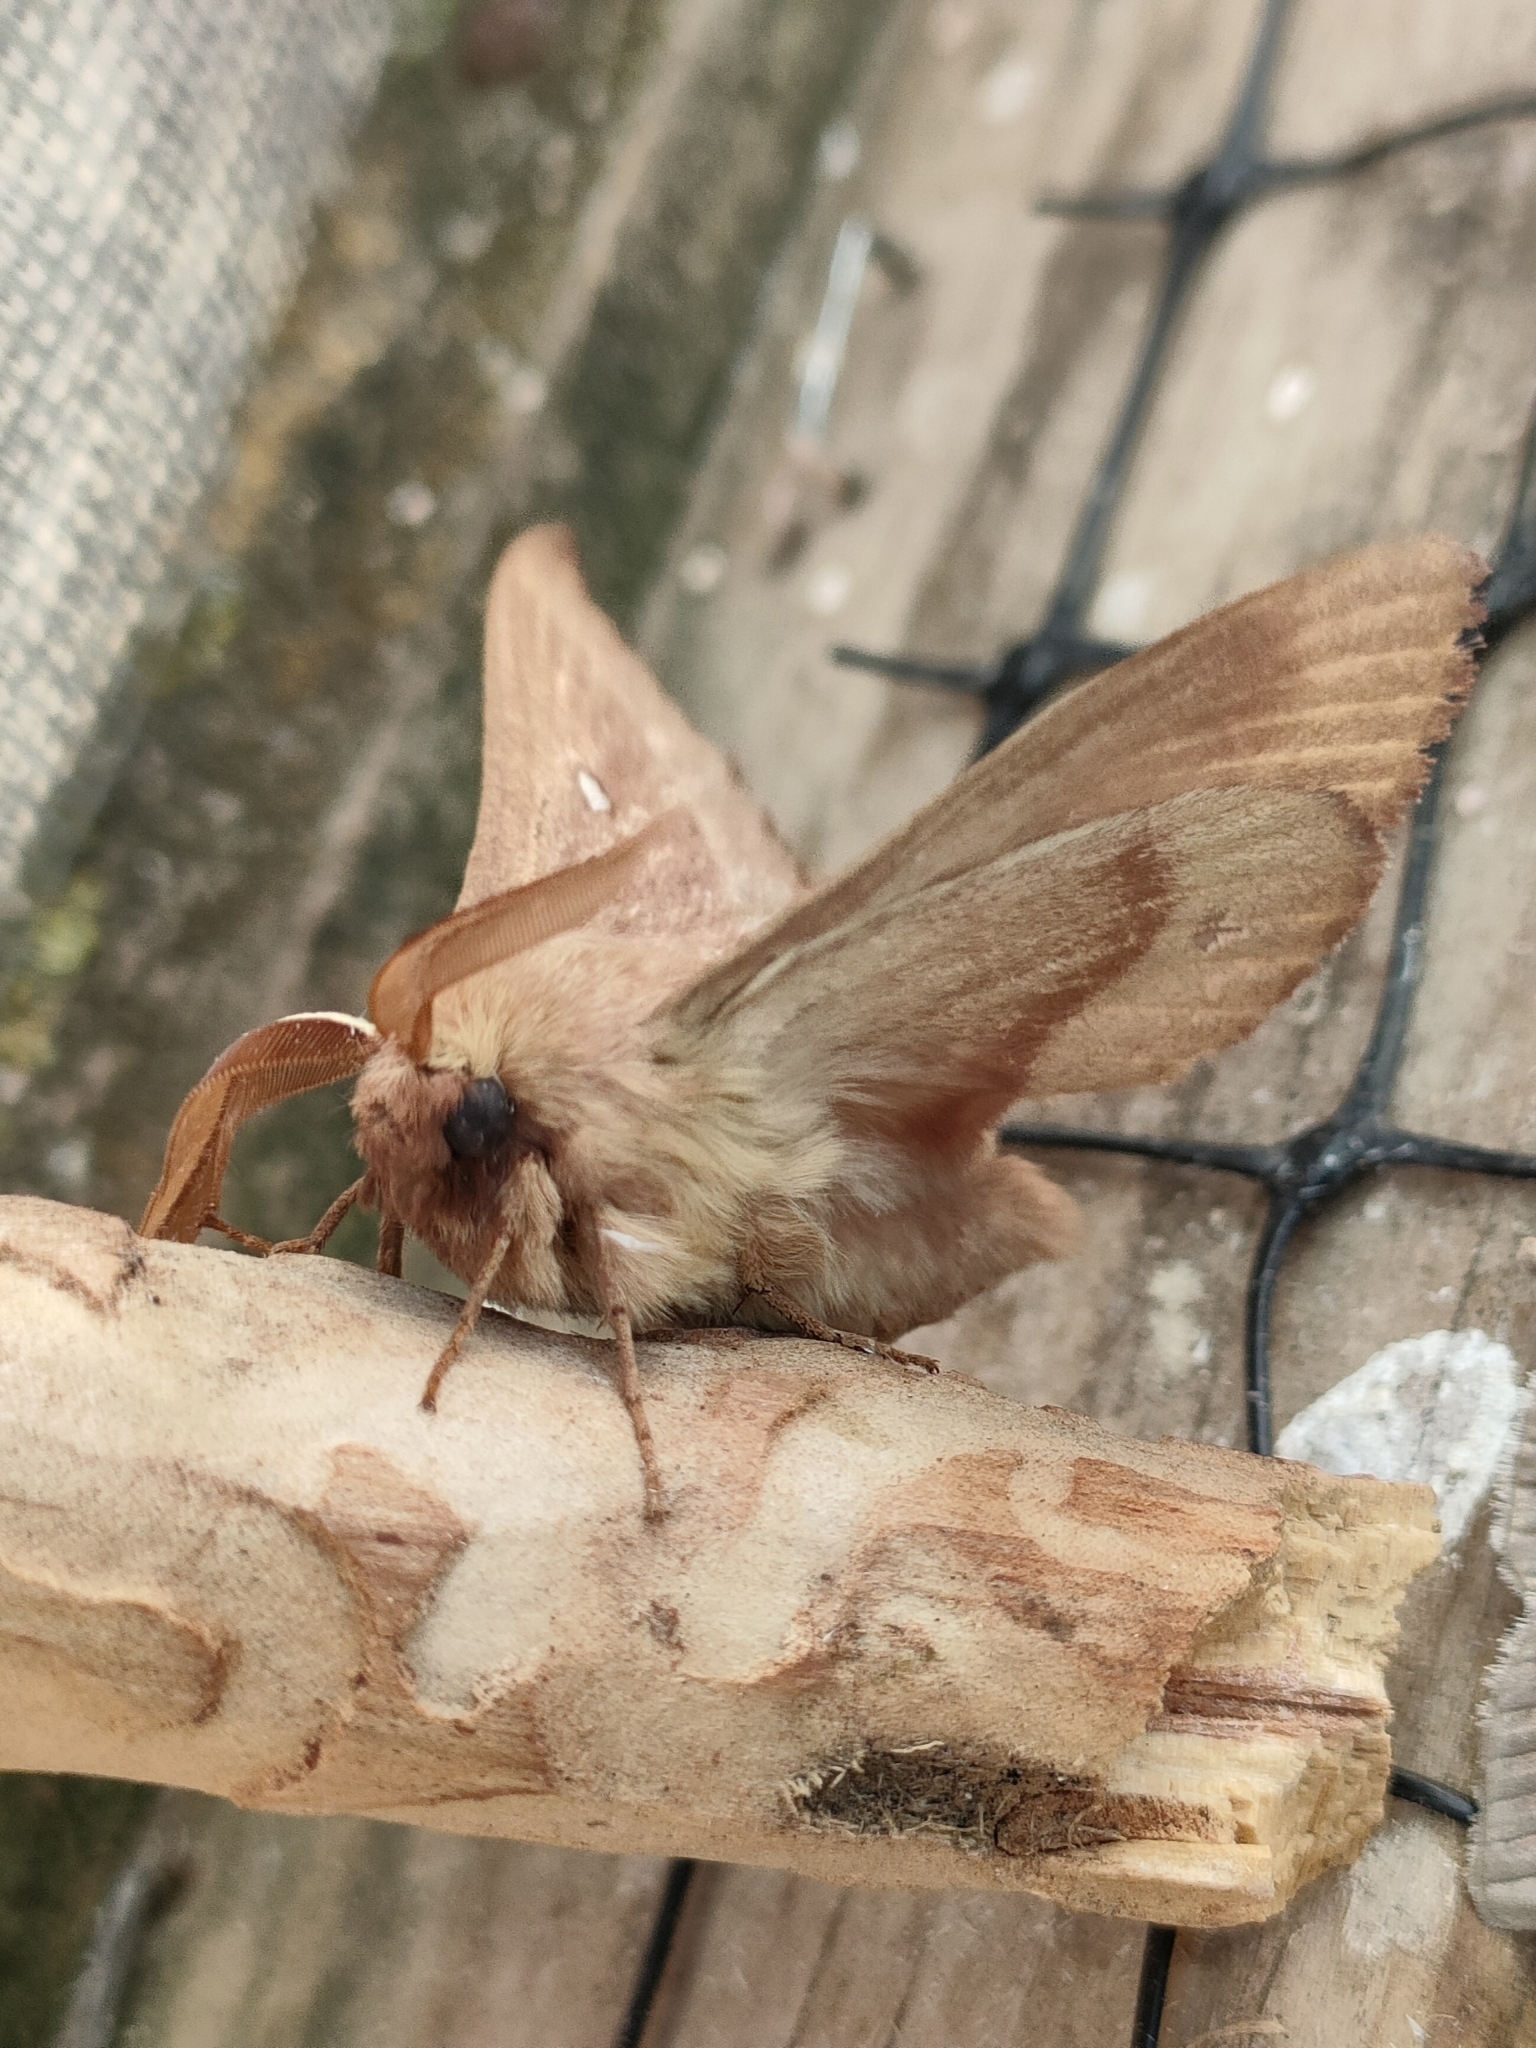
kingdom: Animalia
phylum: Arthropoda
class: Insecta
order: Lepidoptera
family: Lasiocampidae
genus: Lasiocampa
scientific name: Lasiocampa trifolii
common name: Grass eggar
